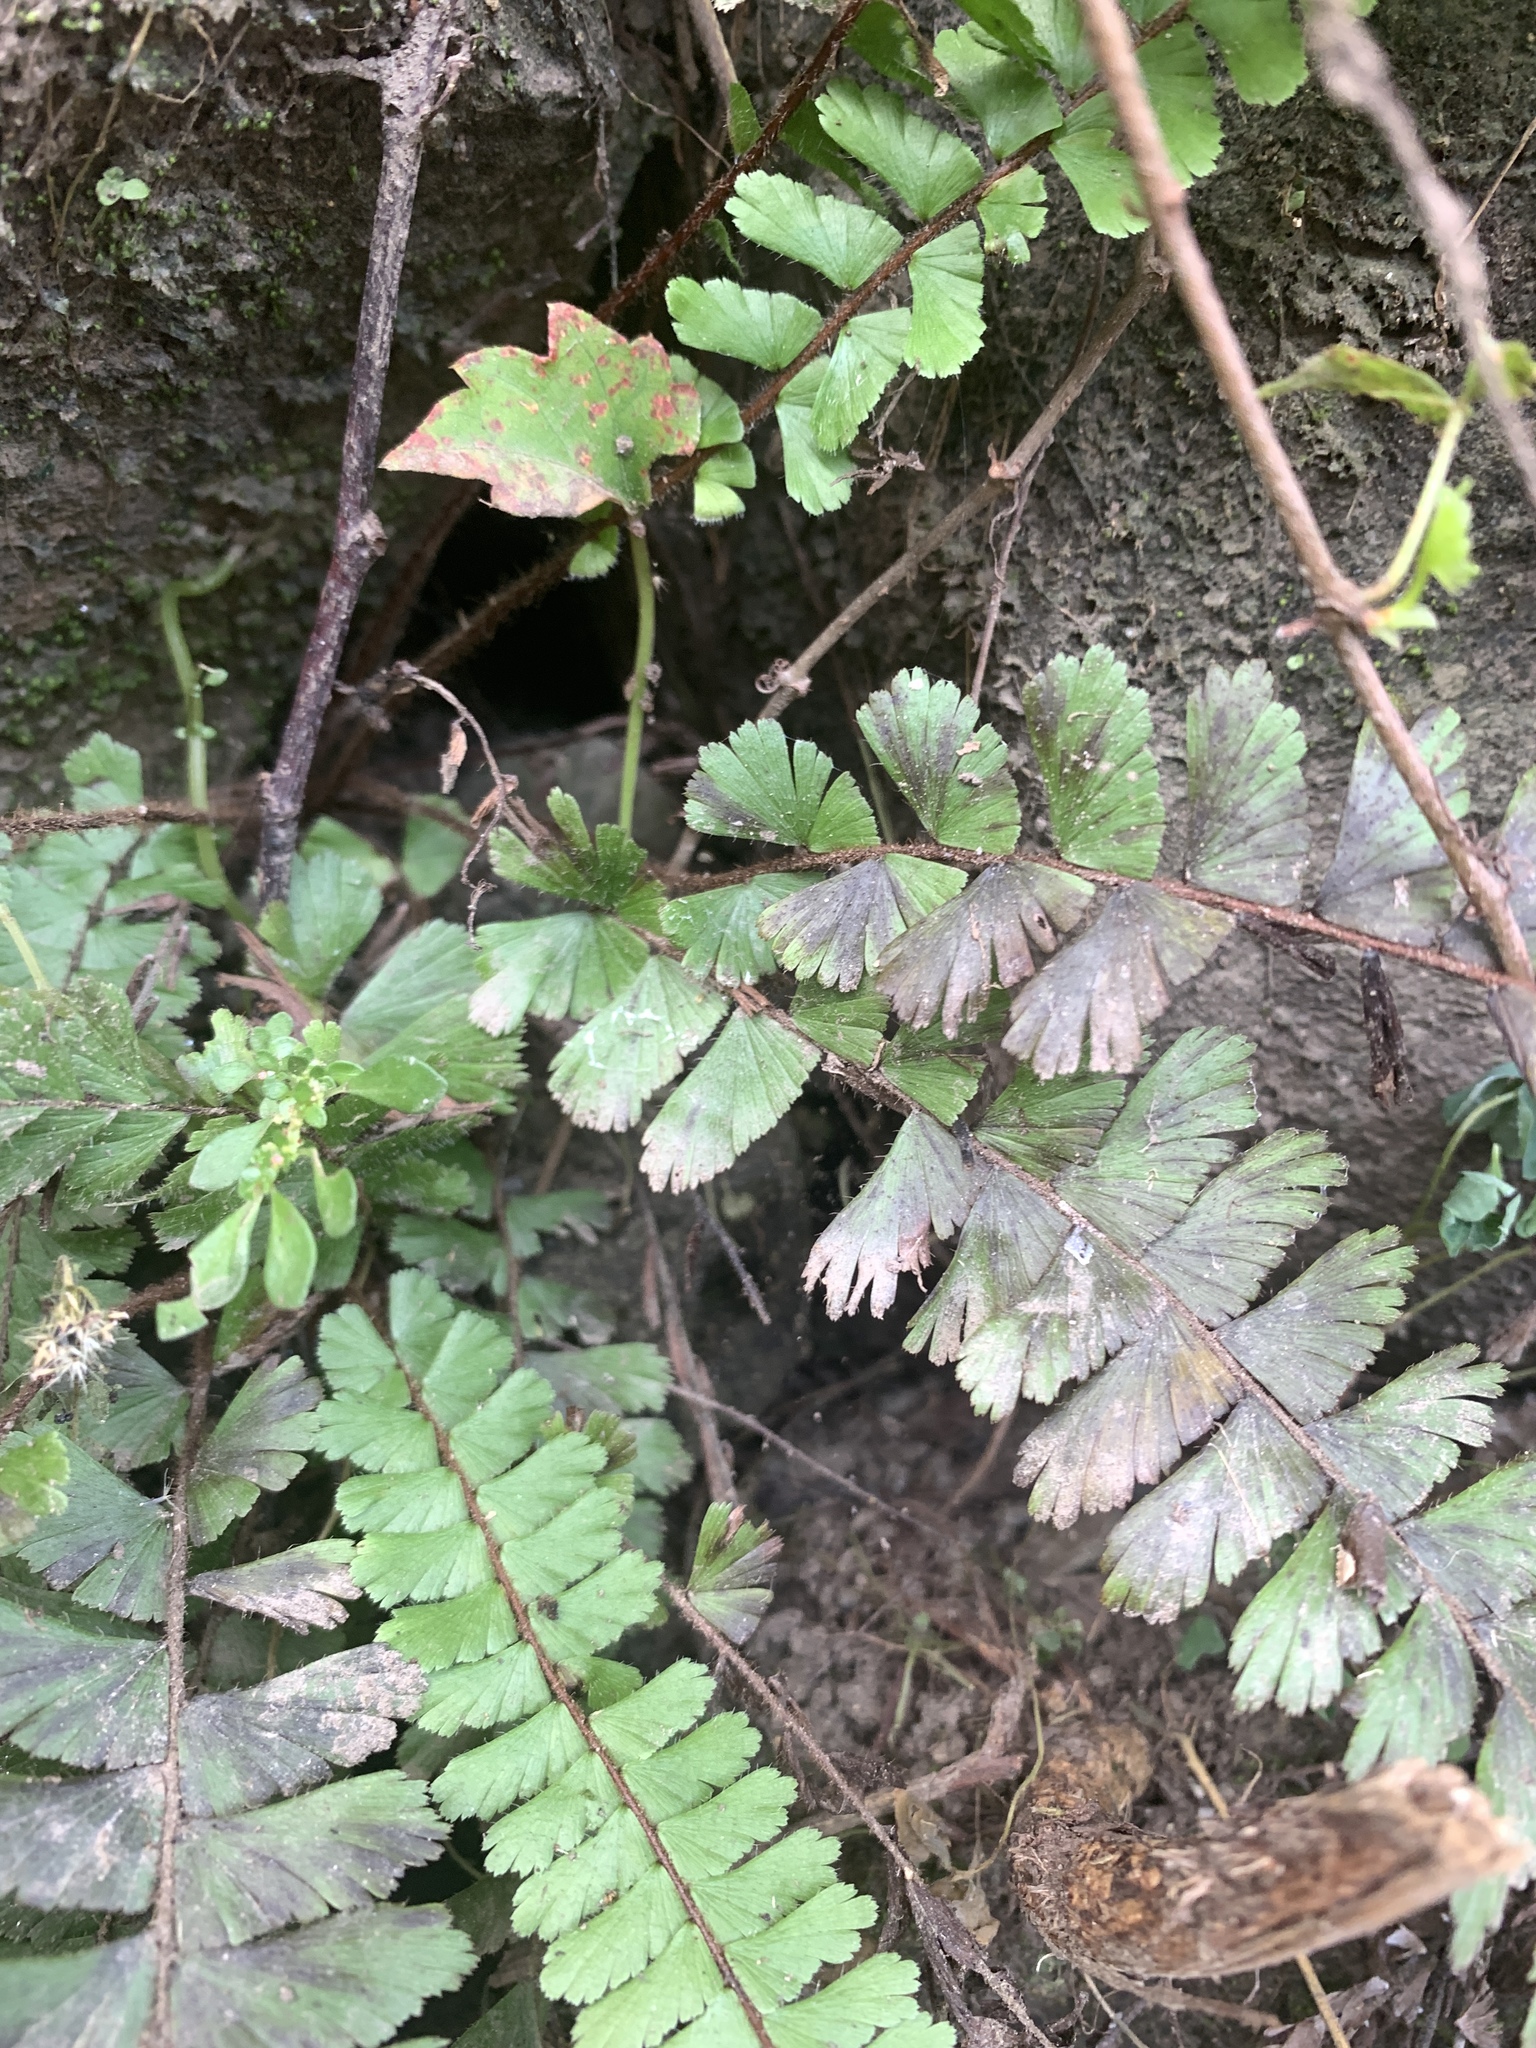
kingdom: Plantae
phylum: Tracheophyta
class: Polypodiopsida
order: Polypodiales
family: Pteridaceae
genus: Adiantum
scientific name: Adiantum caudatum
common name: Tailed maidenhair
